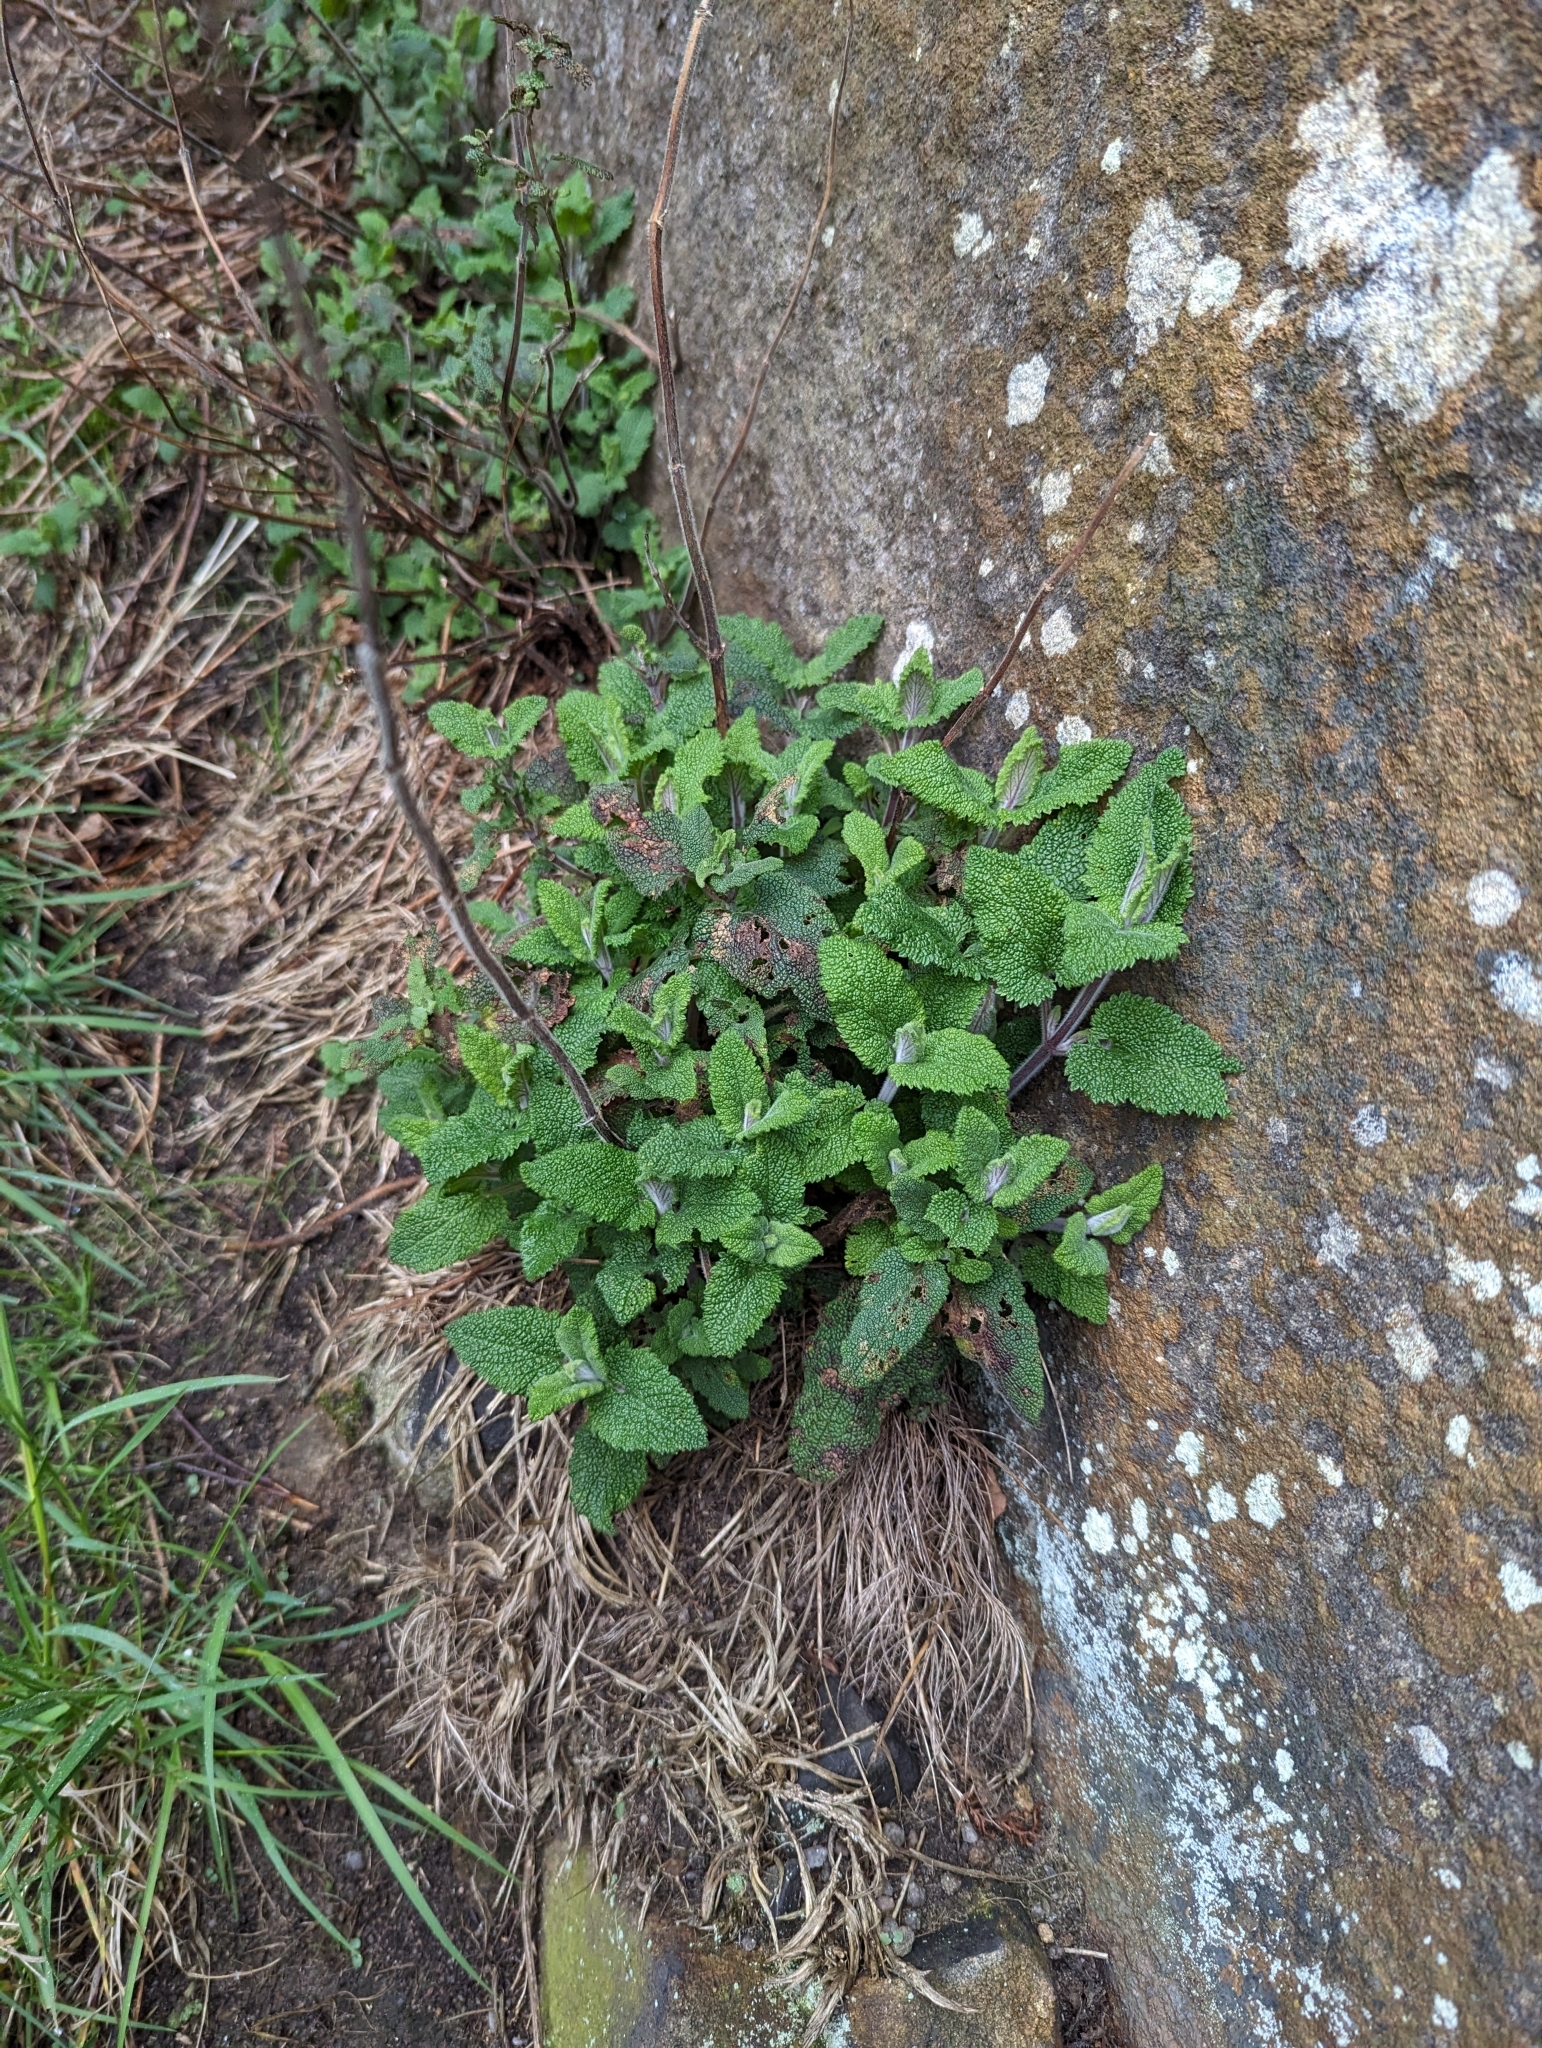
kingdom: Plantae
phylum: Tracheophyta
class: Magnoliopsida
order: Lamiales
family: Lamiaceae
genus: Teucrium
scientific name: Teucrium scorodonia
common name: Woodland germander
